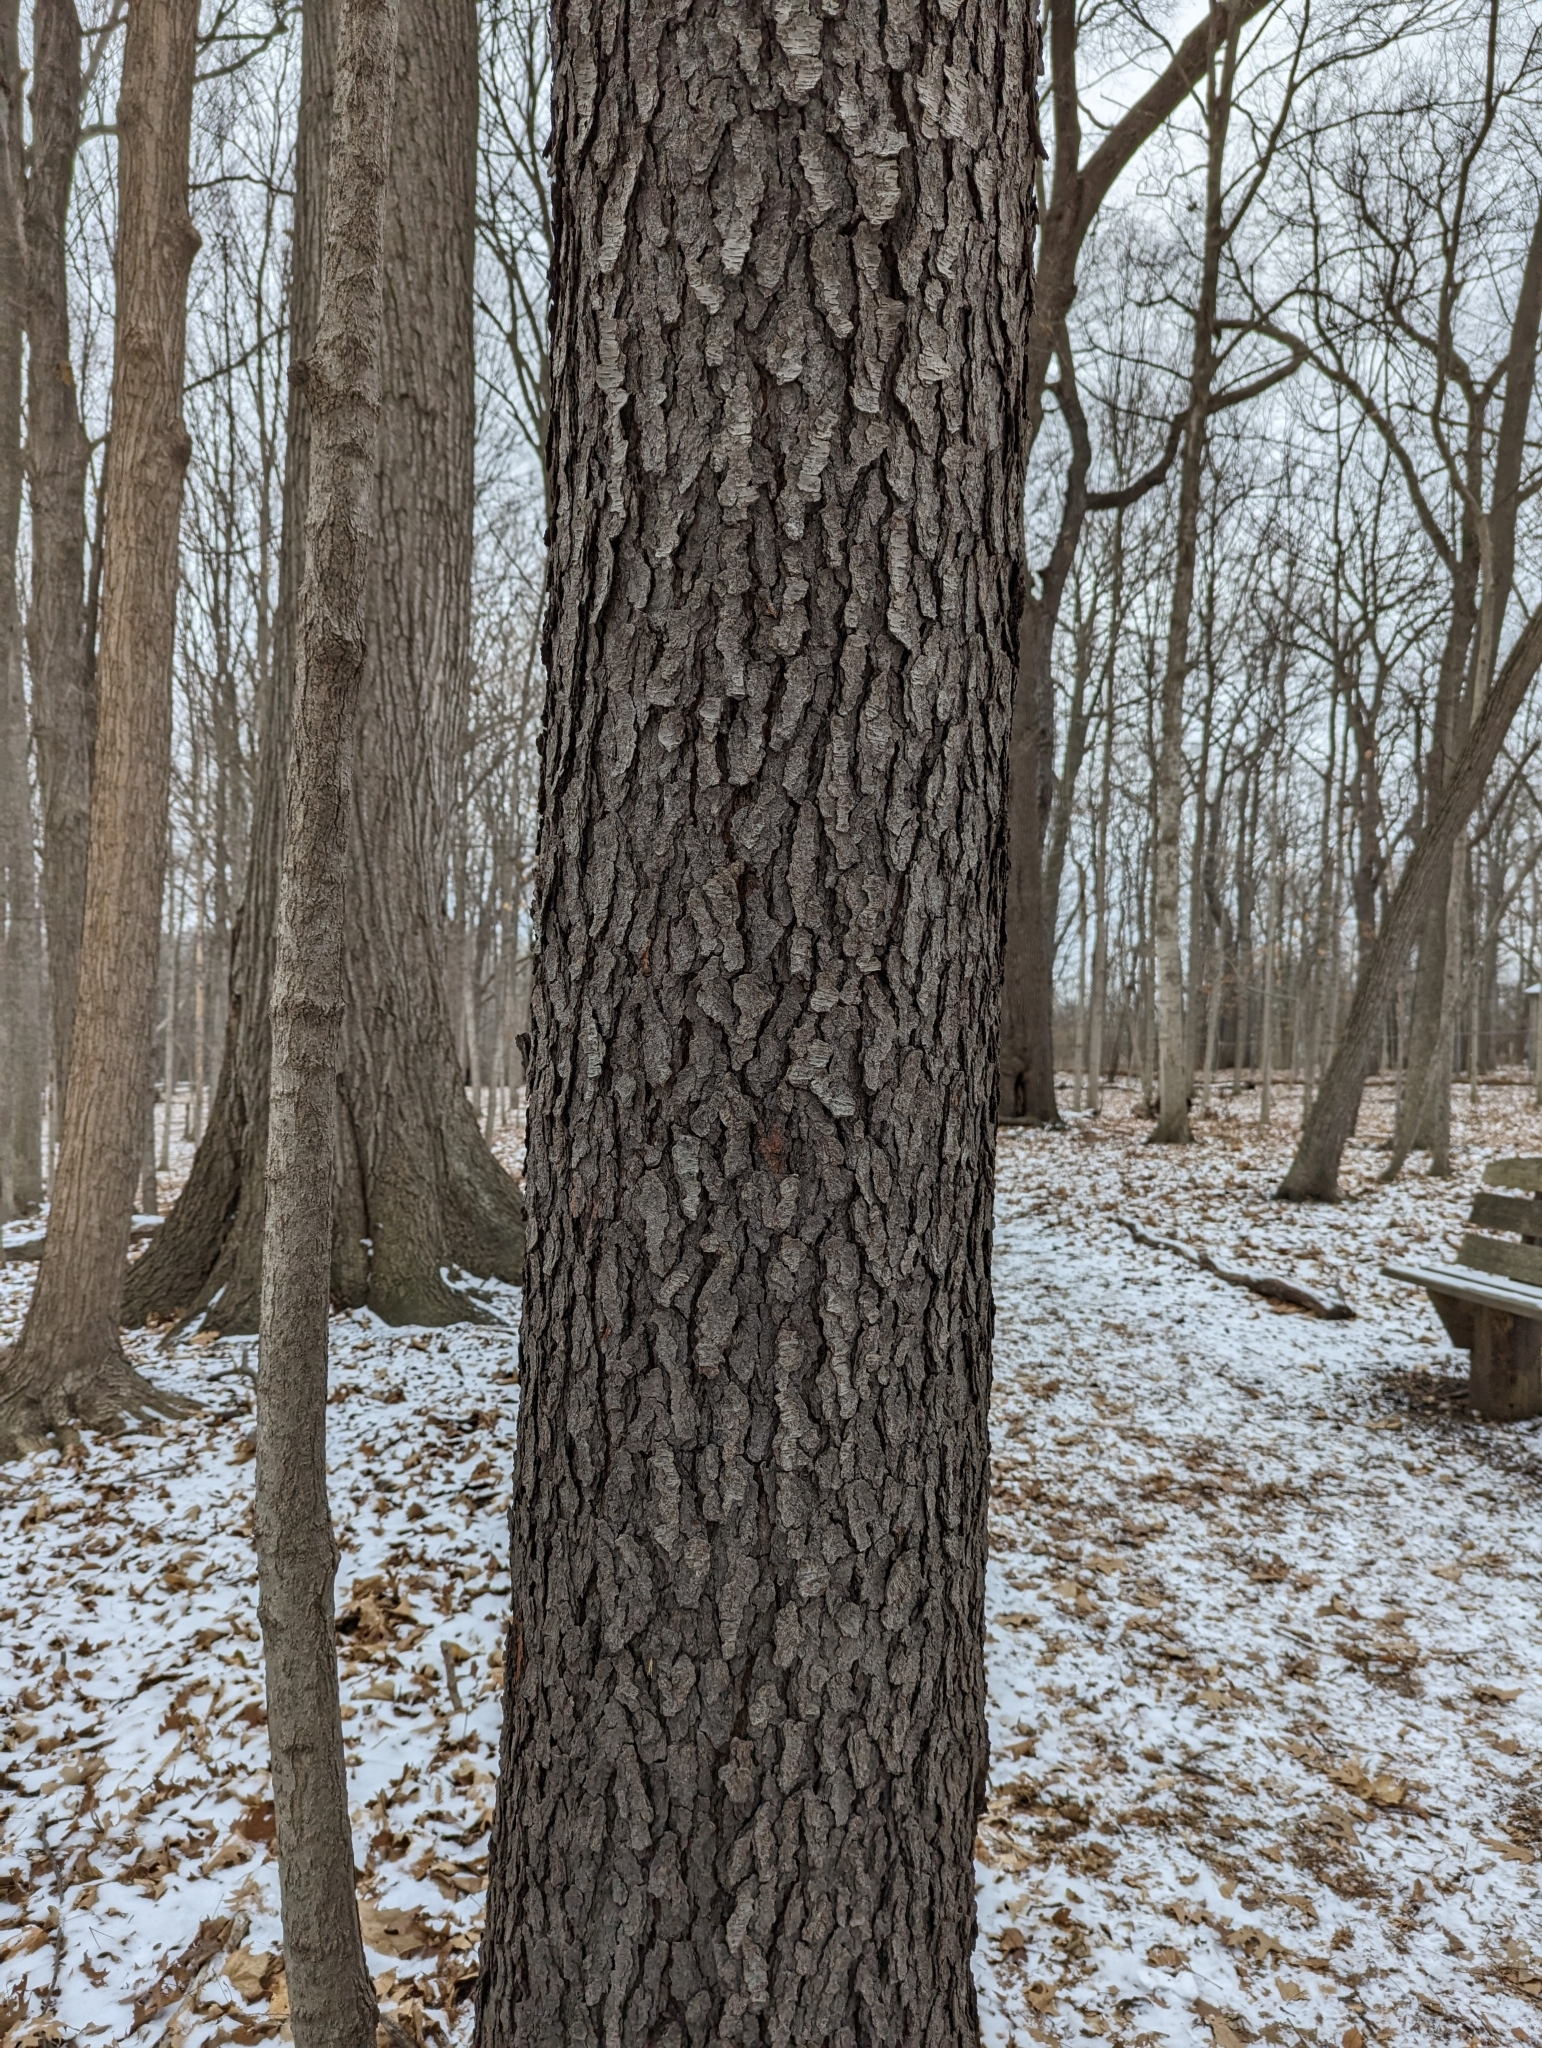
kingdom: Plantae
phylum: Tracheophyta
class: Magnoliopsida
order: Rosales
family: Rosaceae
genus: Prunus
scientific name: Prunus serotina
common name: Black cherry
